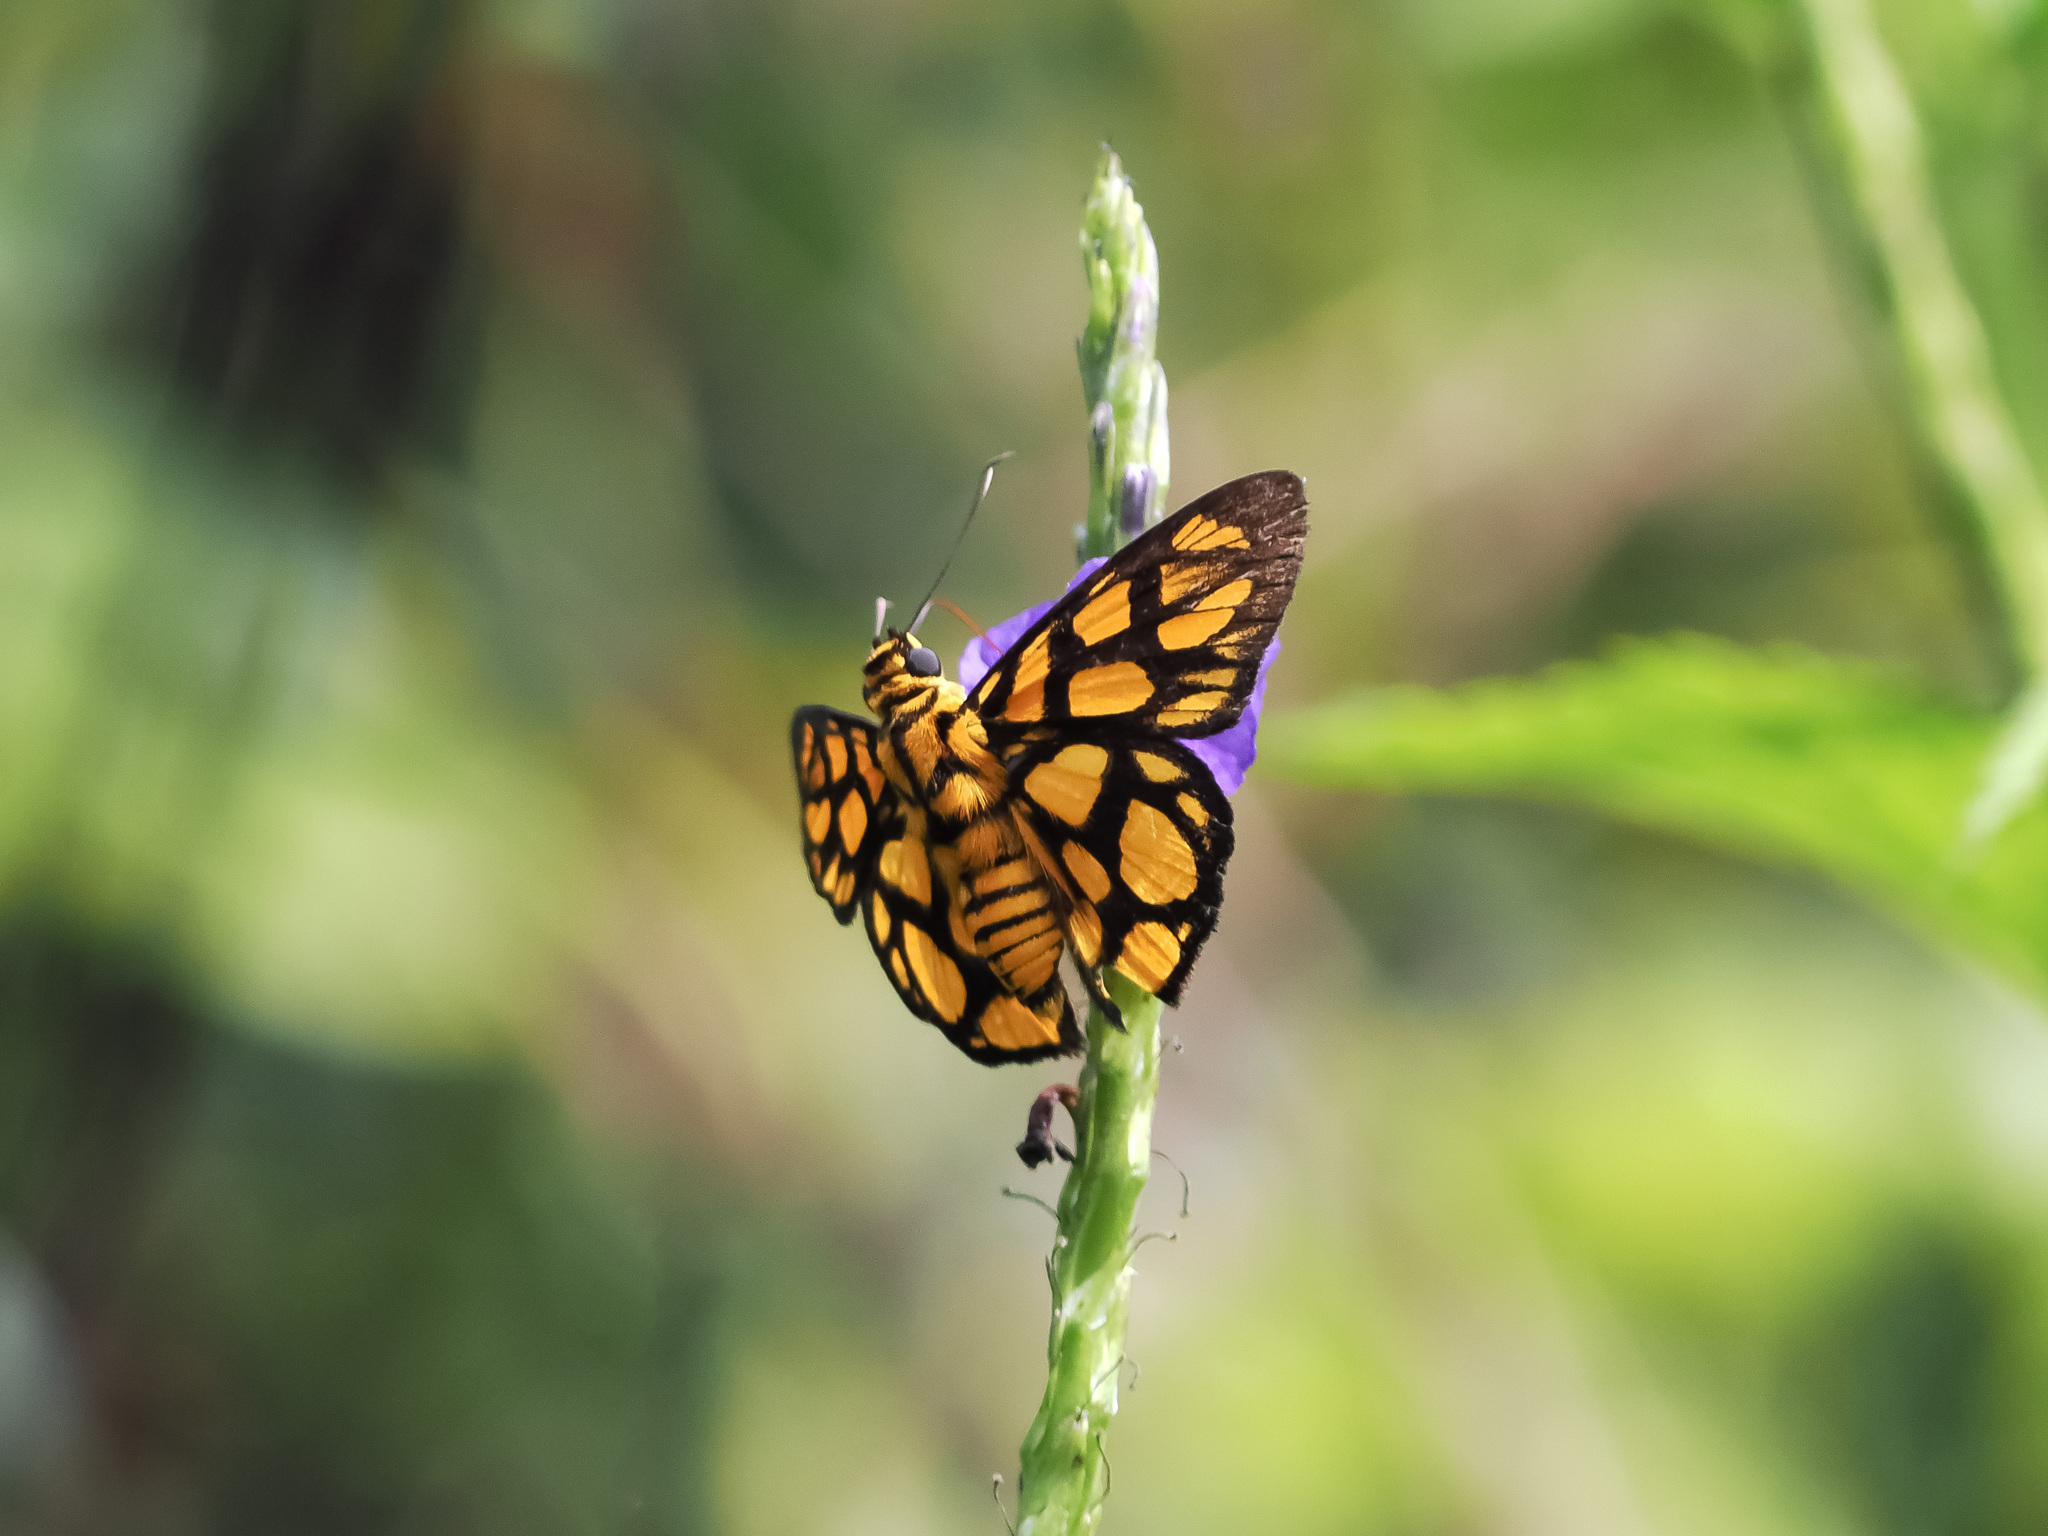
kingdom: Animalia
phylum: Arthropoda
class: Insecta
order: Lepidoptera
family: Hesperiidae
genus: Odina
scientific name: Odina hieroglyphica
